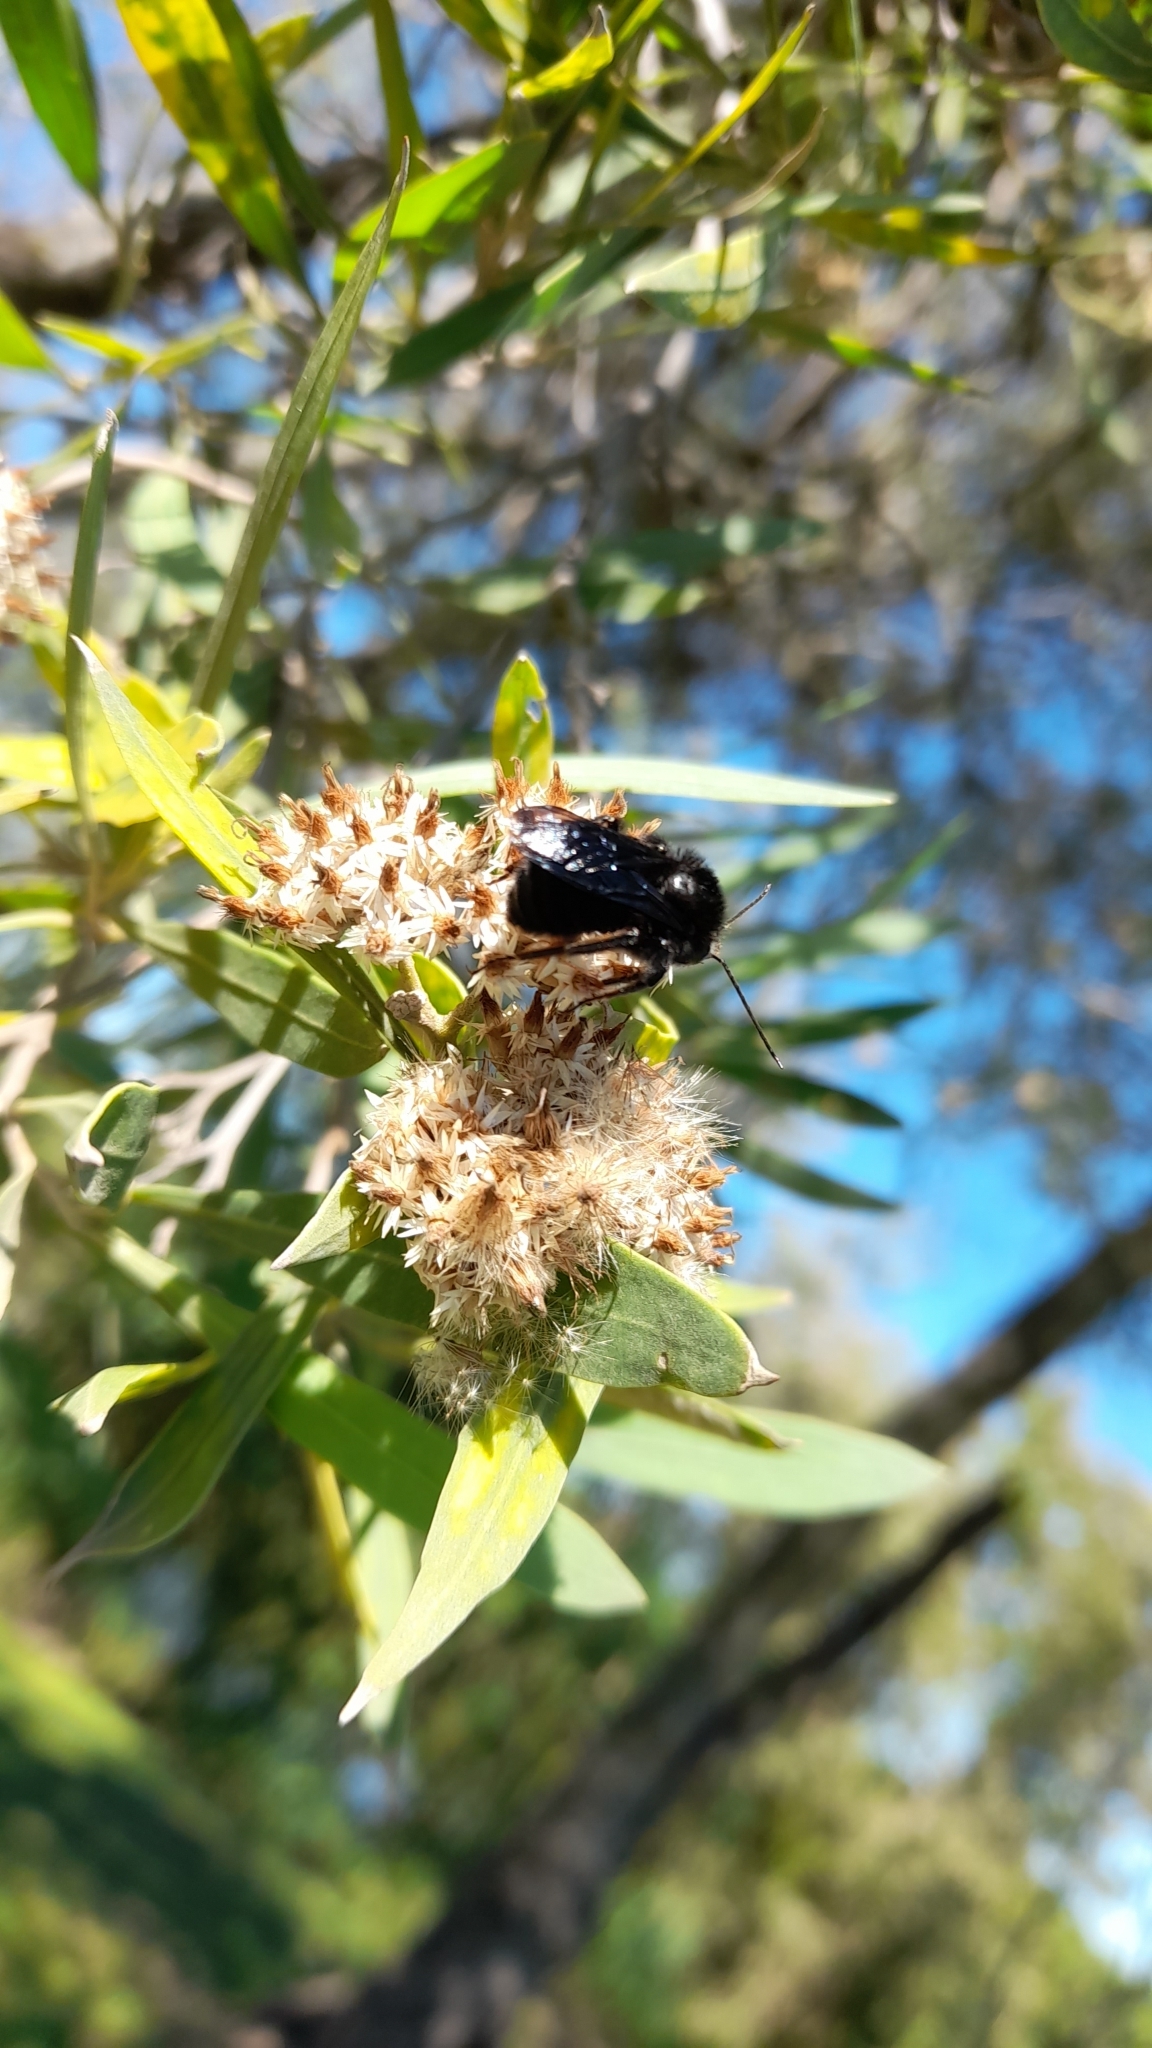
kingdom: Animalia
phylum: Arthropoda
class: Insecta
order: Hymenoptera
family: Apidae
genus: Bombus
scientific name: Bombus pauloensis
